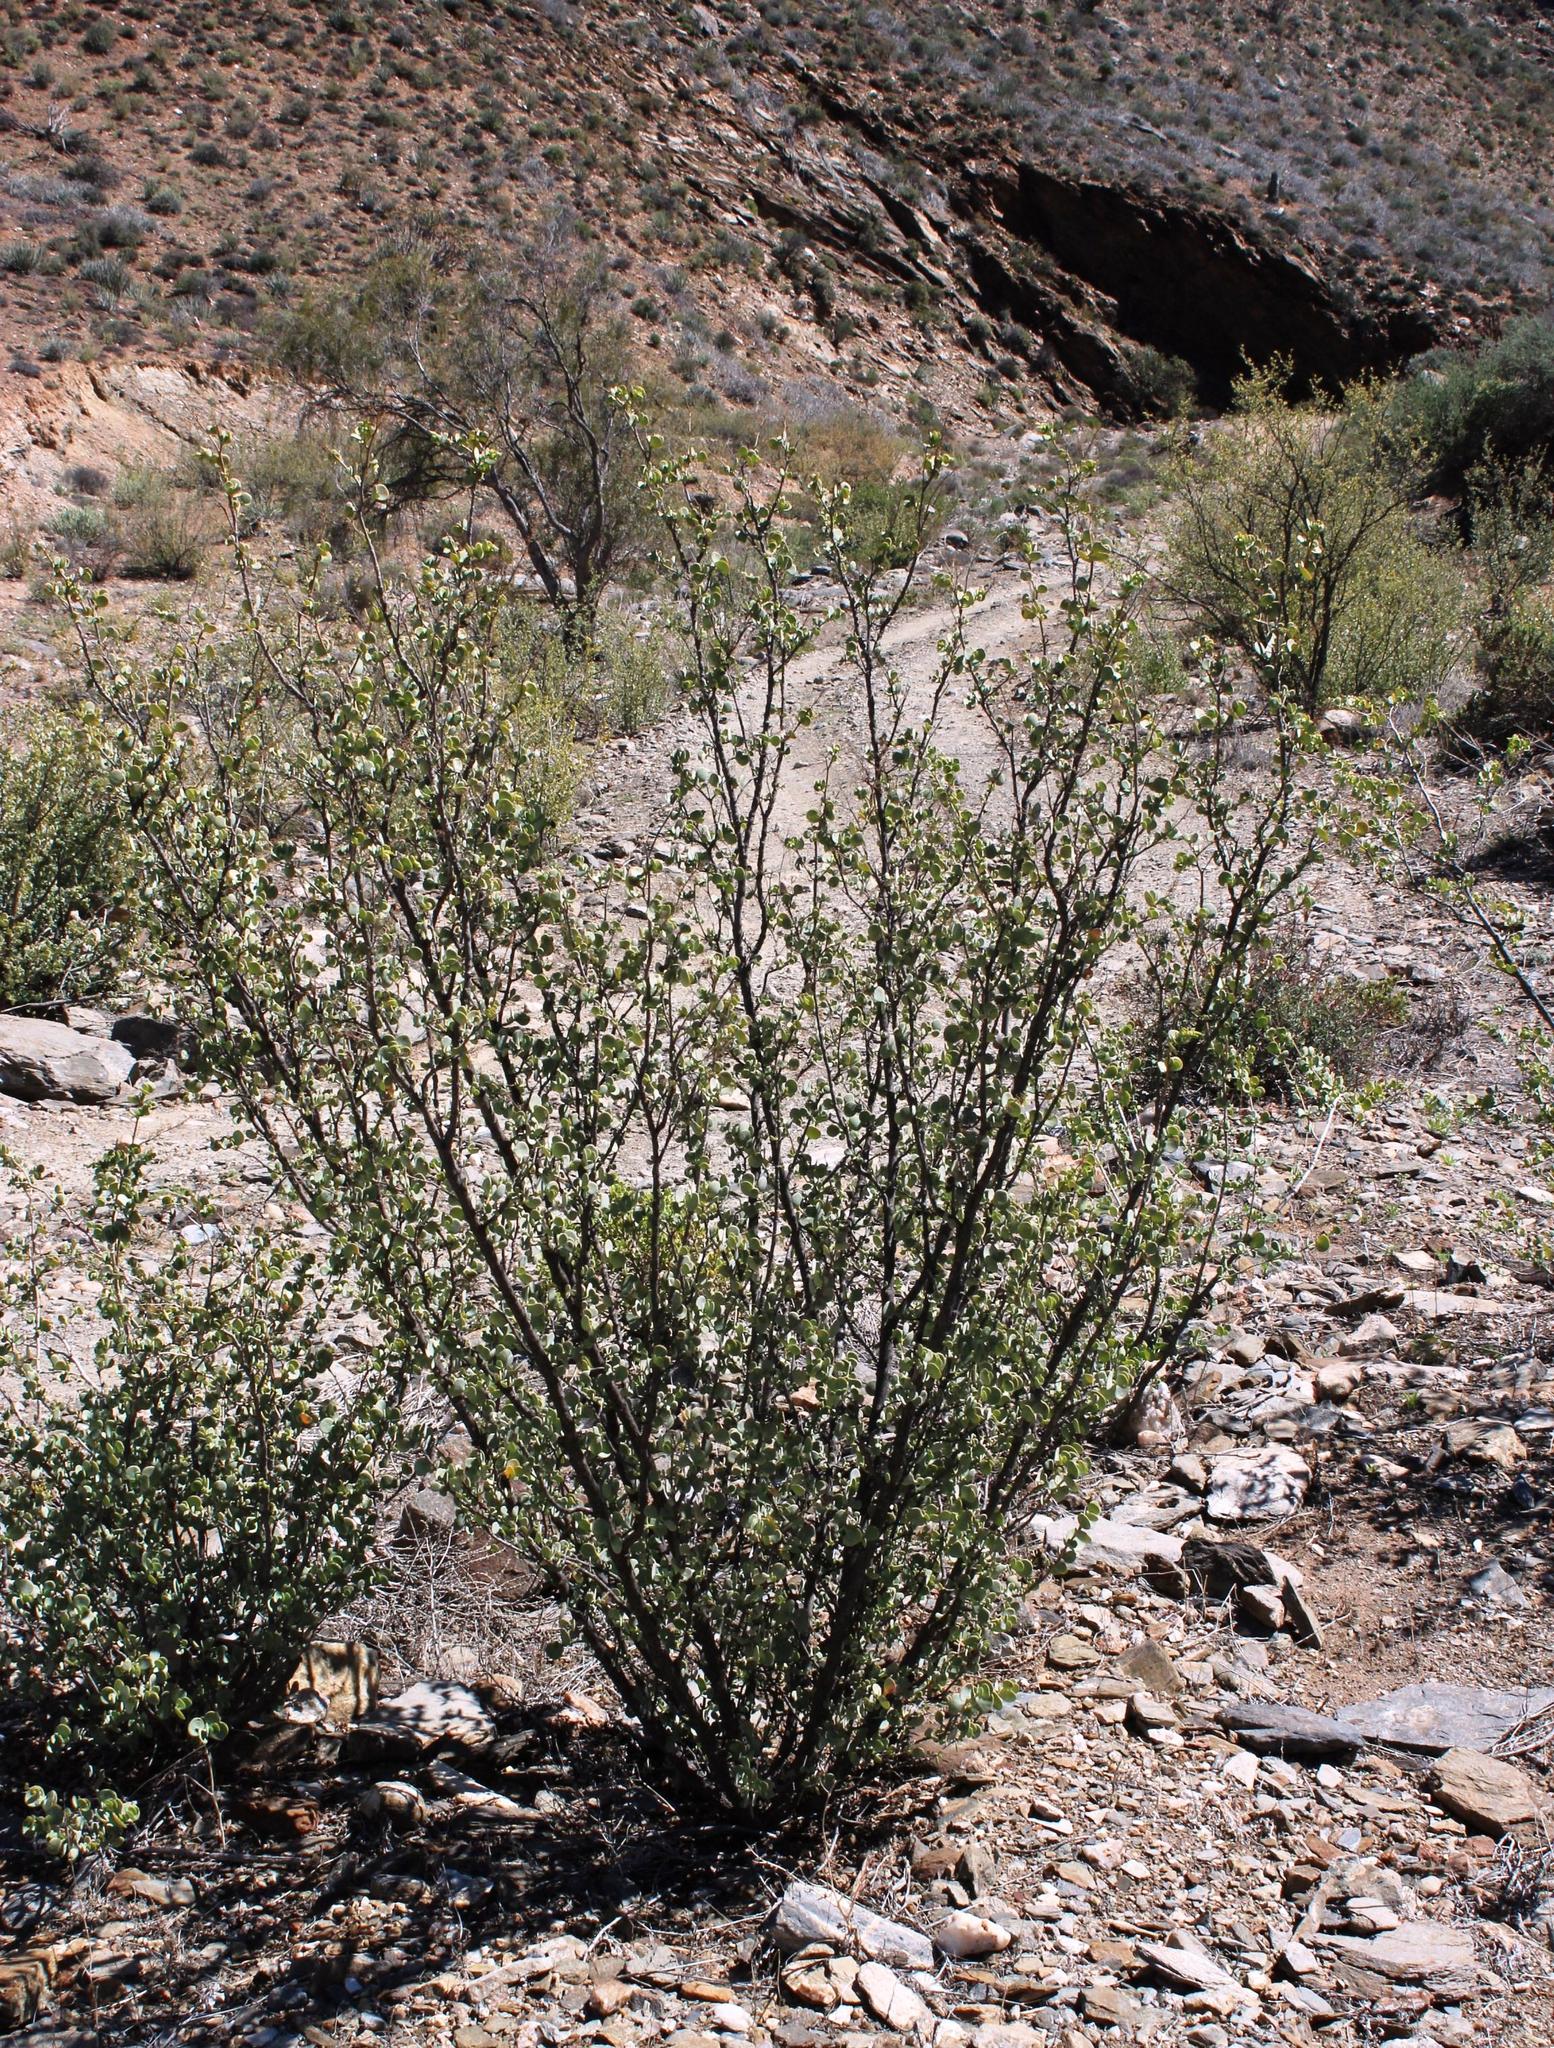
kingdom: Plantae
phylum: Tracheophyta
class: Magnoliopsida
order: Zygophyllales
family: Zygophyllaceae
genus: Tetraena
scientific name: Tetraena prismatocarpa
